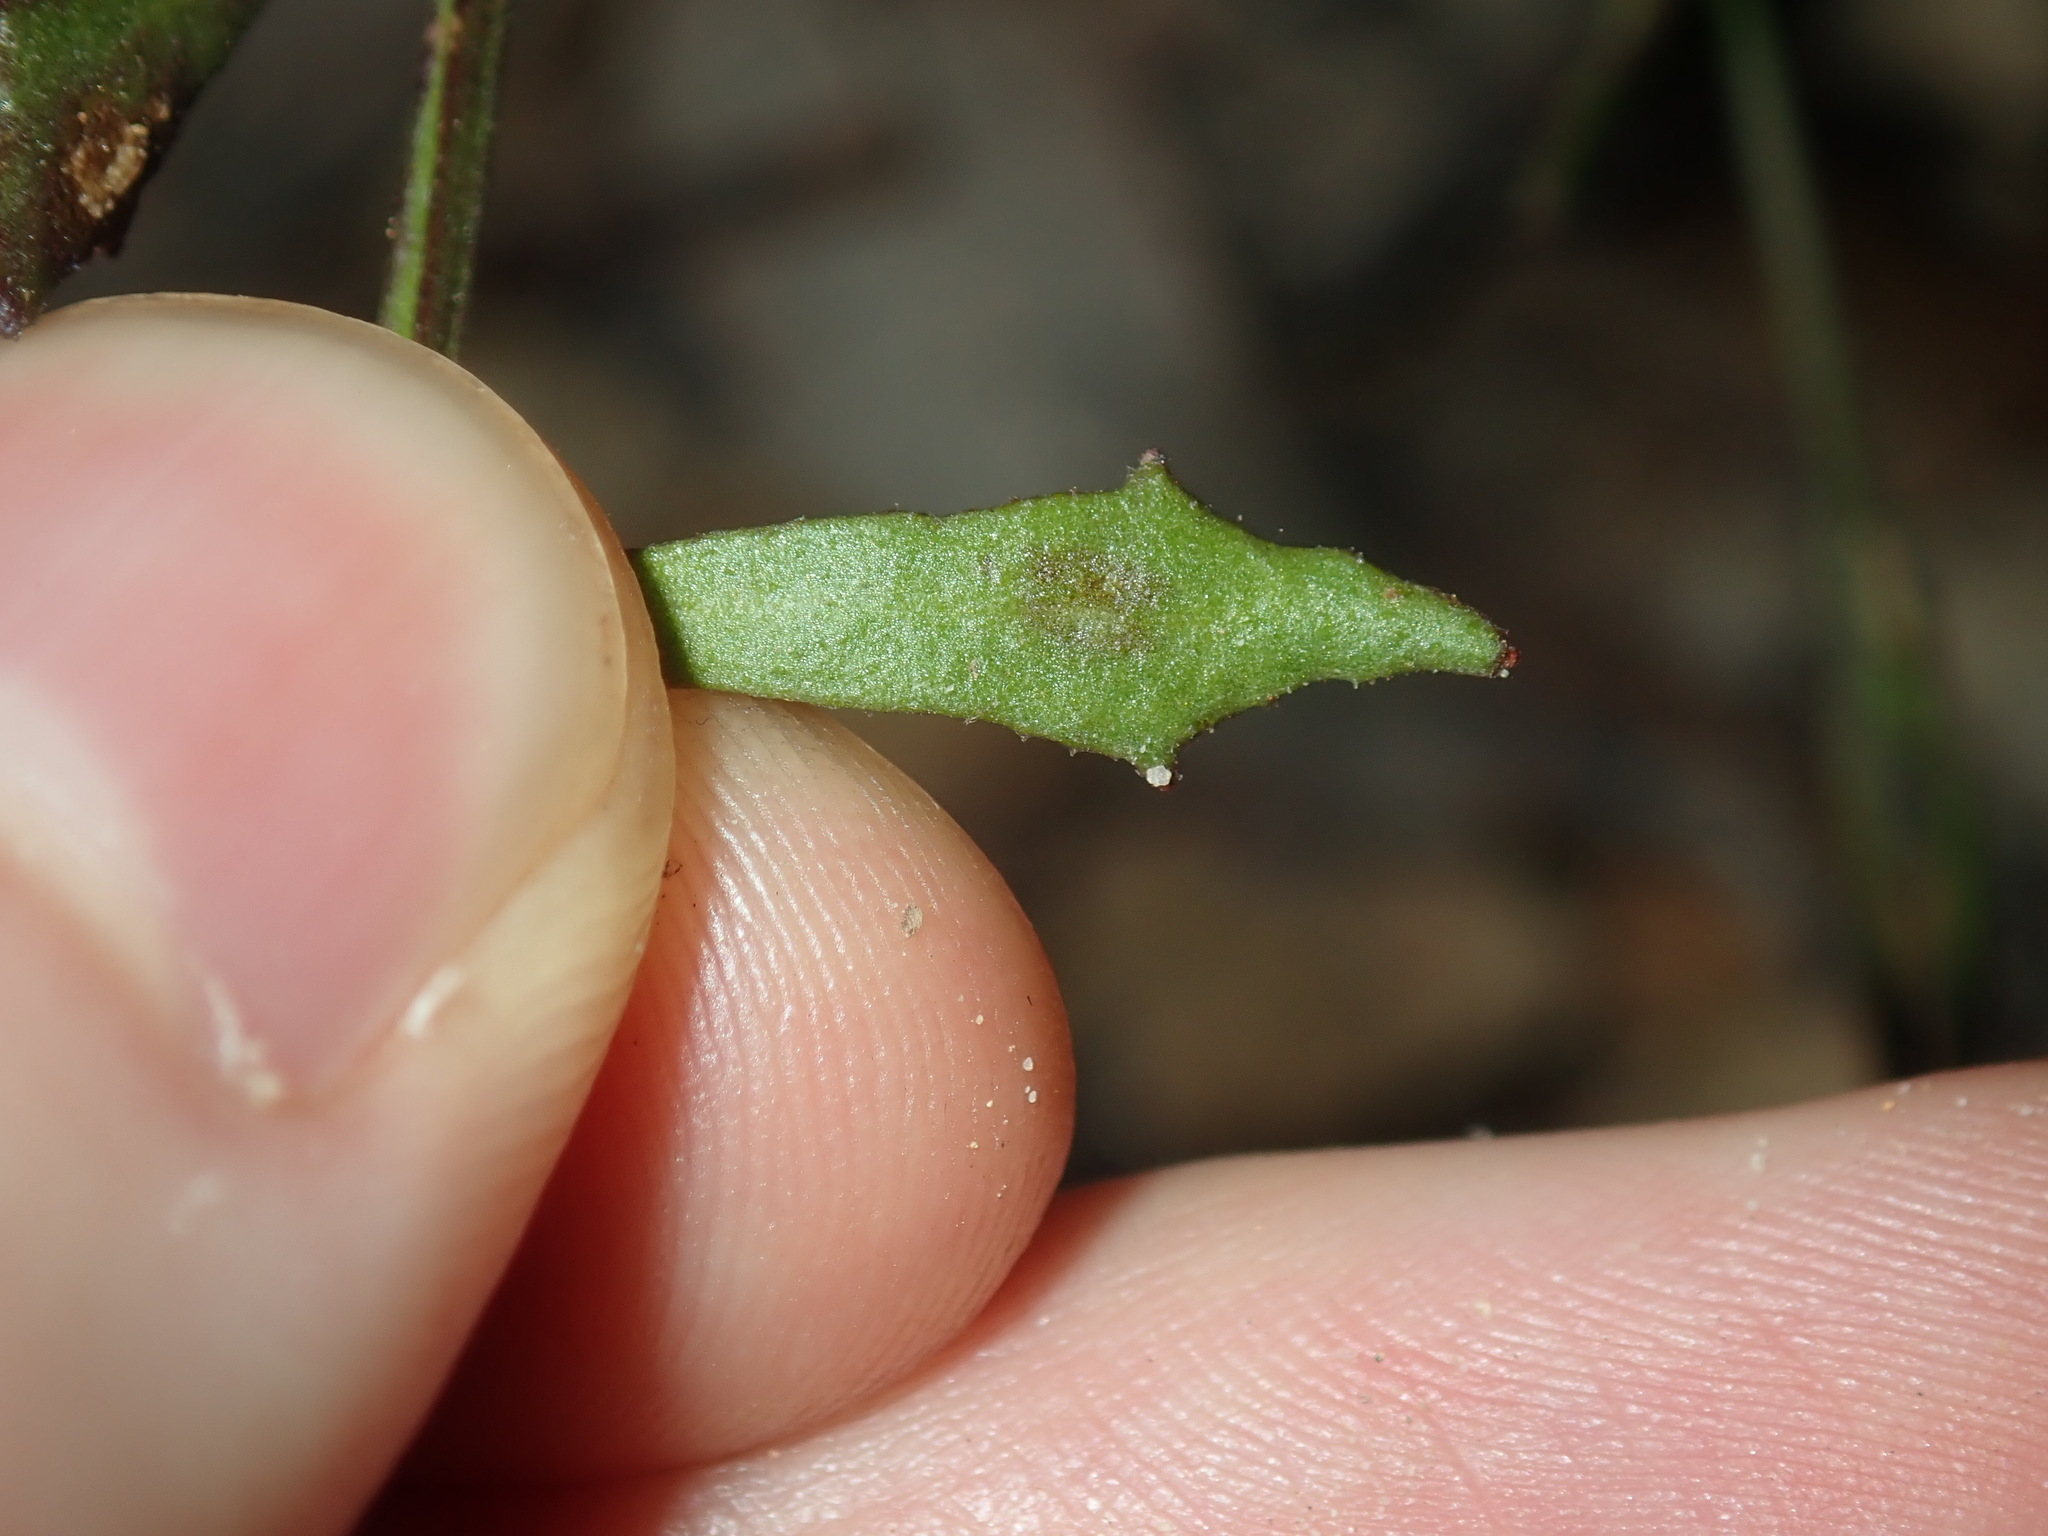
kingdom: Plantae
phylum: Tracheophyta
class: Magnoliopsida
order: Asterales
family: Goodeniaceae
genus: Dampiera
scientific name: Dampiera stricta
